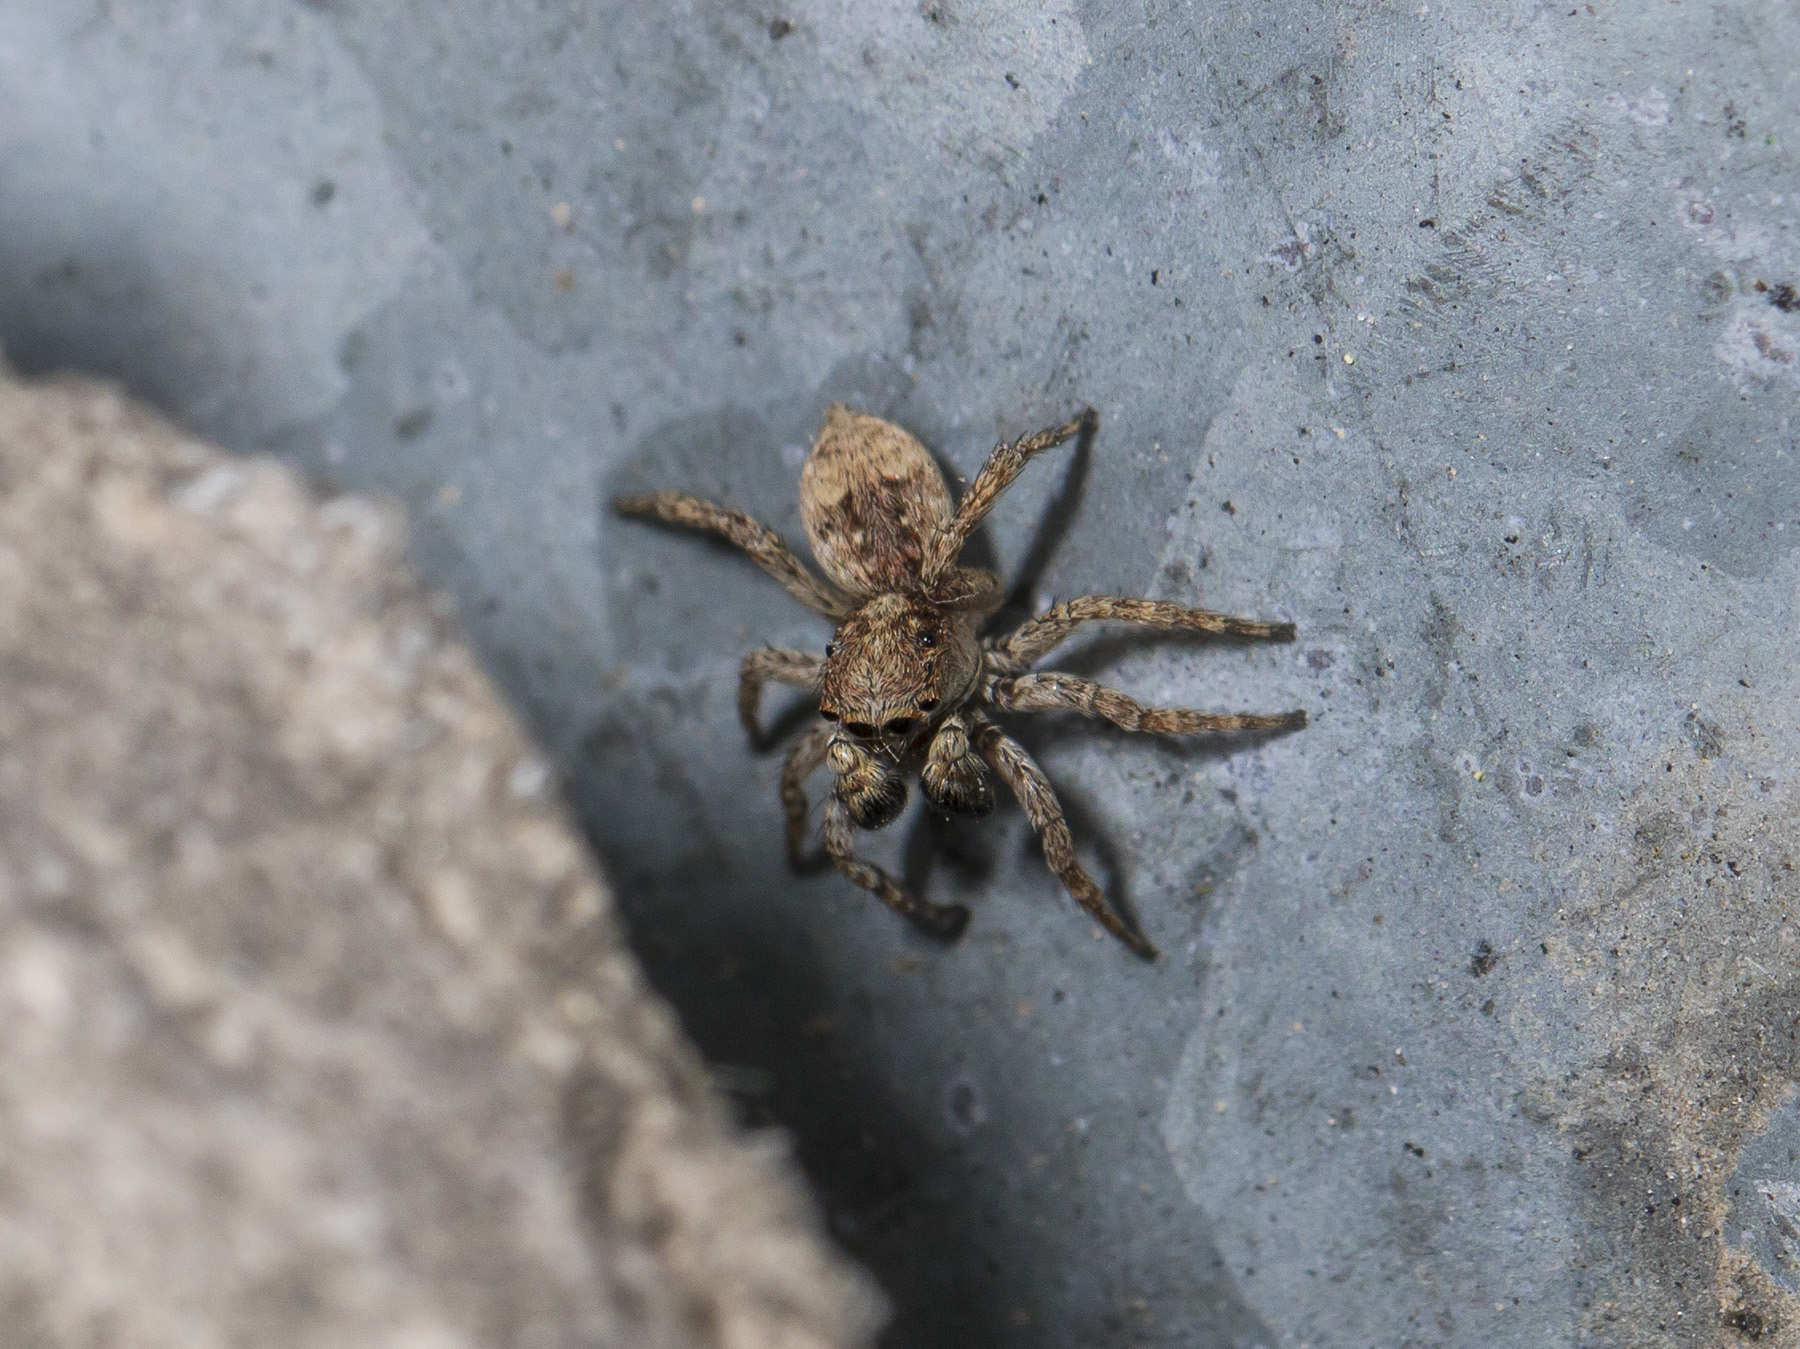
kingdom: Animalia
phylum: Arthropoda
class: Arachnida
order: Araneae
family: Salticidae
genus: Attulus
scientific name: Attulus fasciger
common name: Asiatic wall jumping spider
